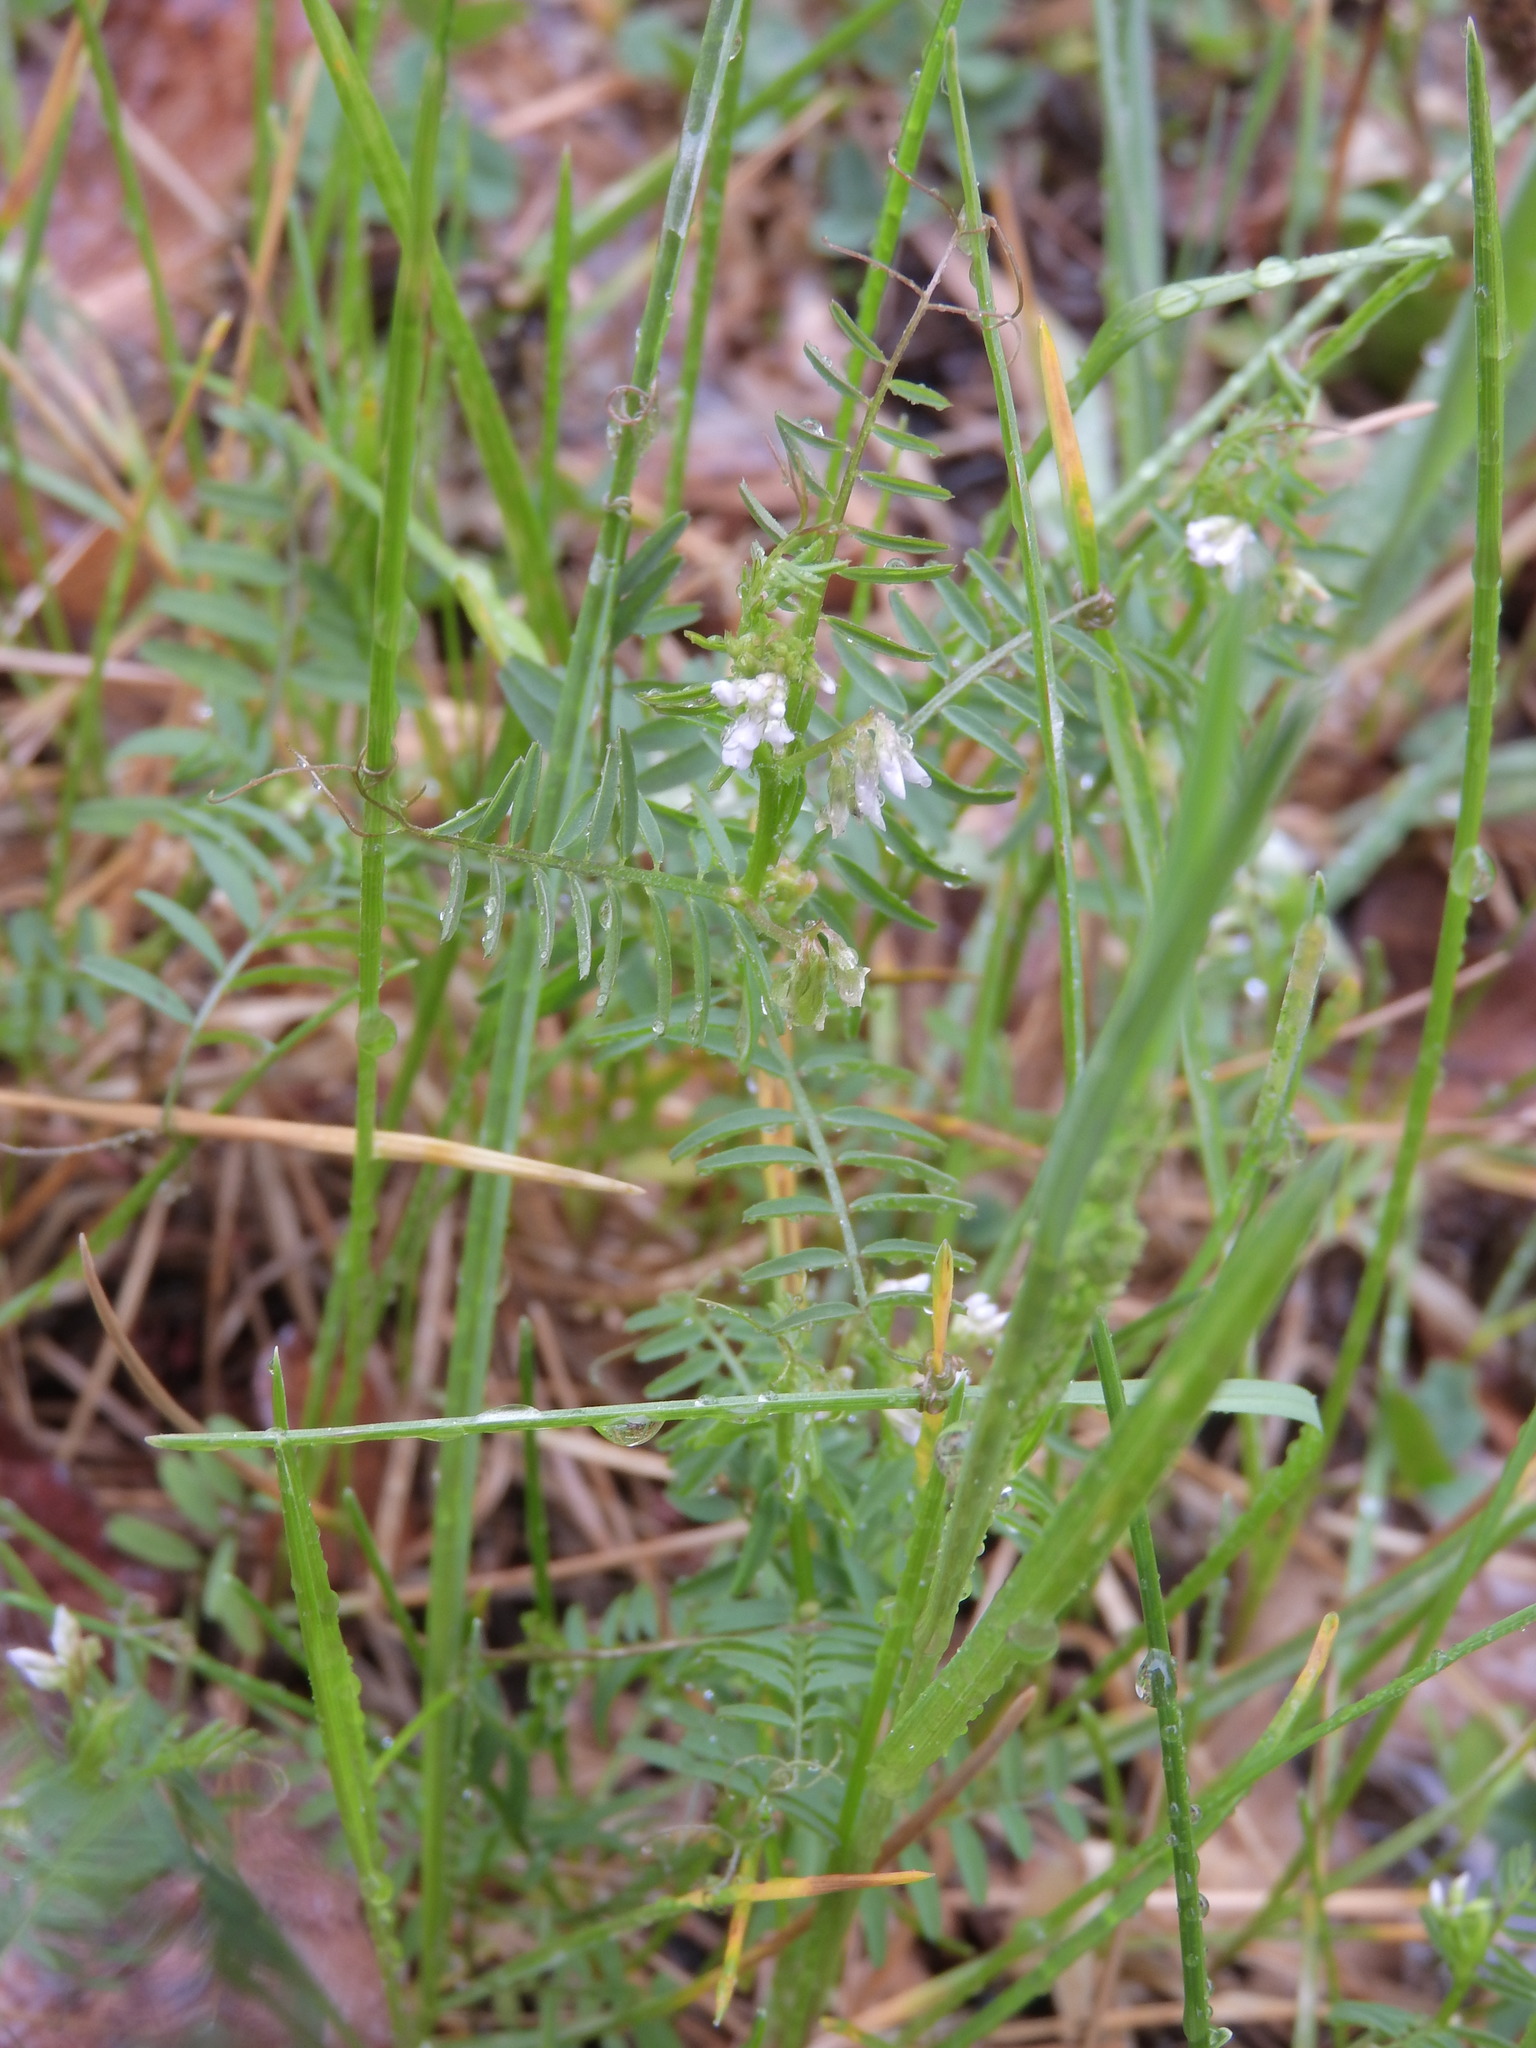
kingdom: Plantae
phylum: Tracheophyta
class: Magnoliopsida
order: Fabales
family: Fabaceae
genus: Vicia
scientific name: Vicia hirsuta
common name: Tiny vetch
